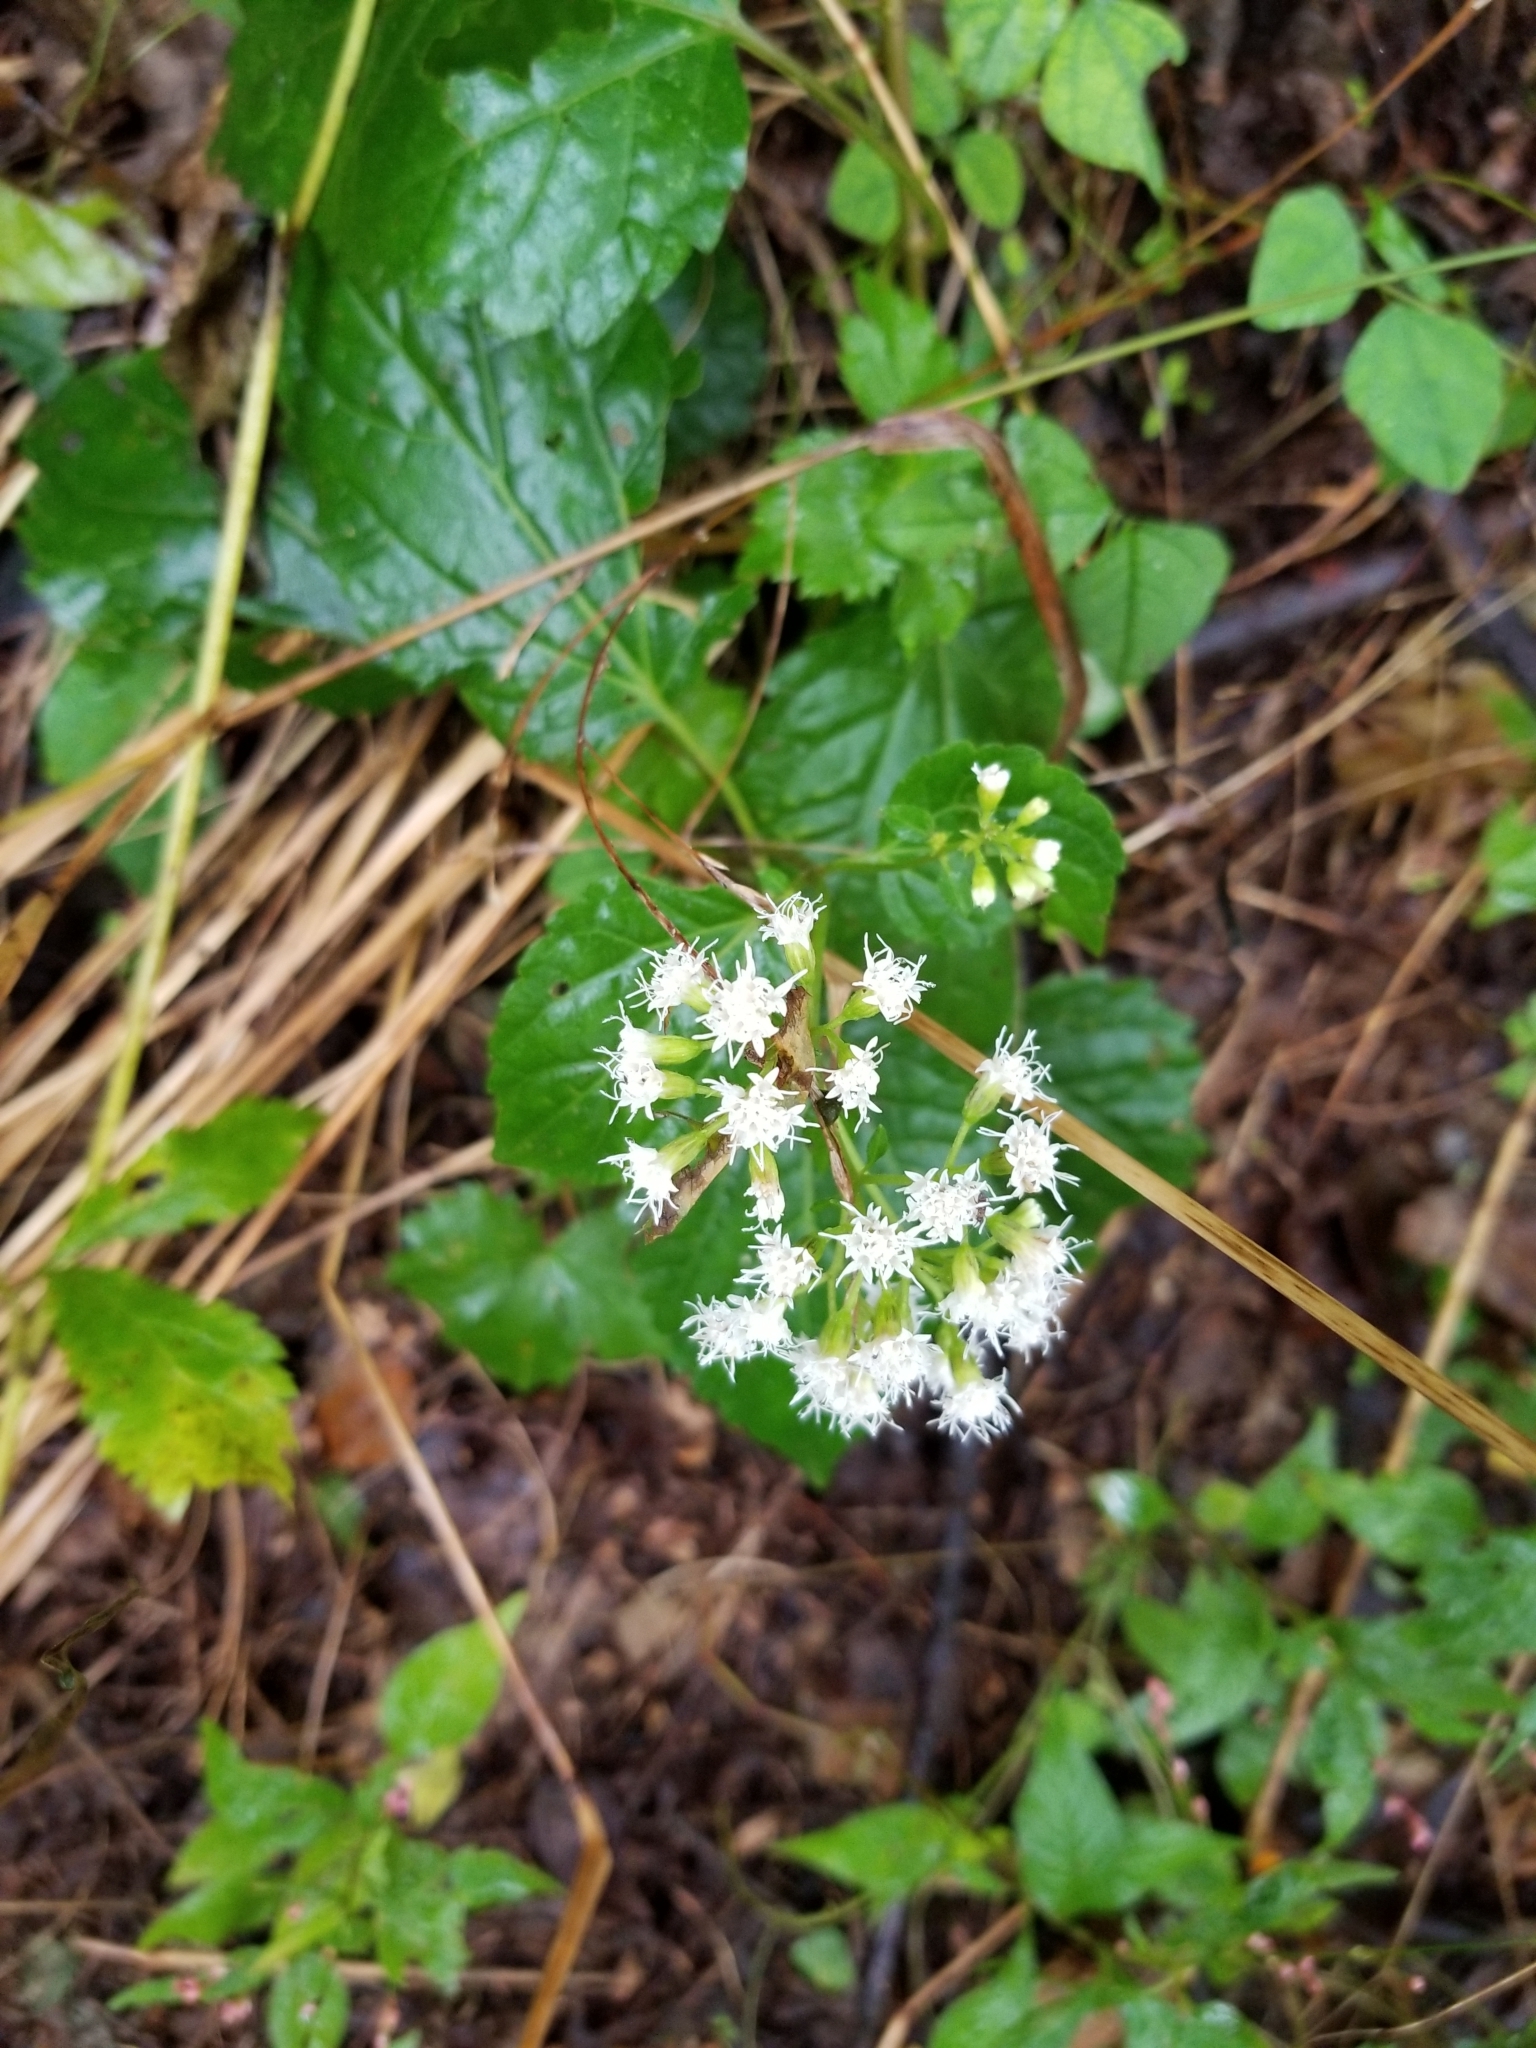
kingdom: Plantae
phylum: Tracheophyta
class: Magnoliopsida
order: Asterales
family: Asteraceae
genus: Ageratina
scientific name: Ageratina altissima
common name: White snakeroot
